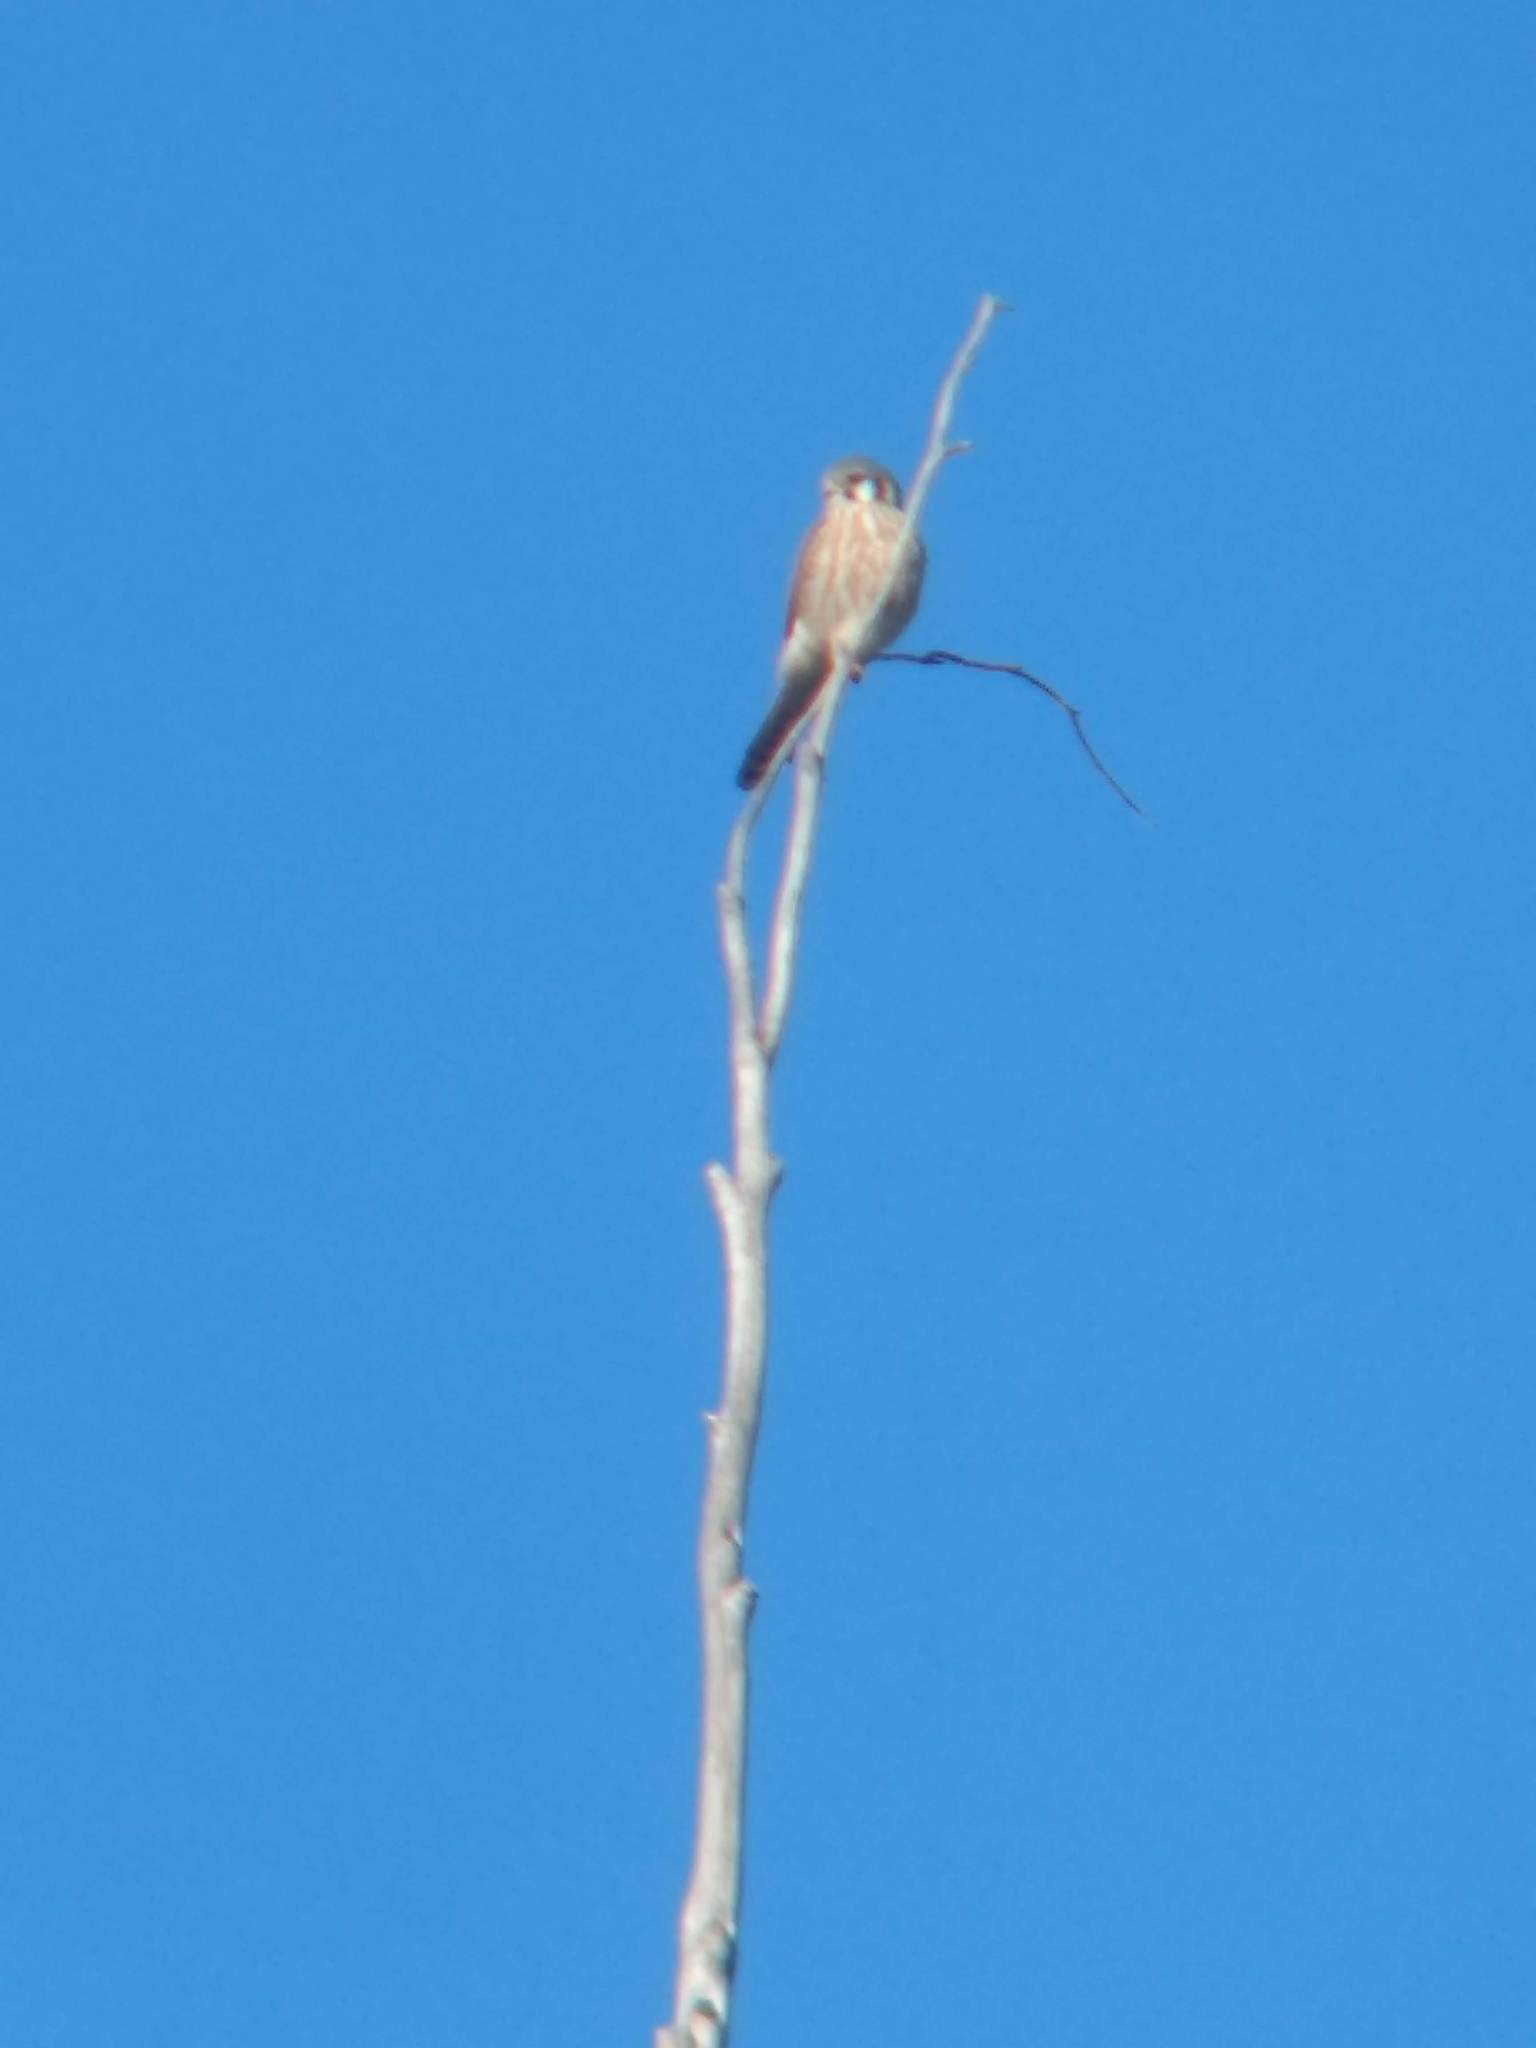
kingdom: Animalia
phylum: Chordata
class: Aves
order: Falconiformes
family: Falconidae
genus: Falco
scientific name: Falco sparverius
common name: American kestrel
